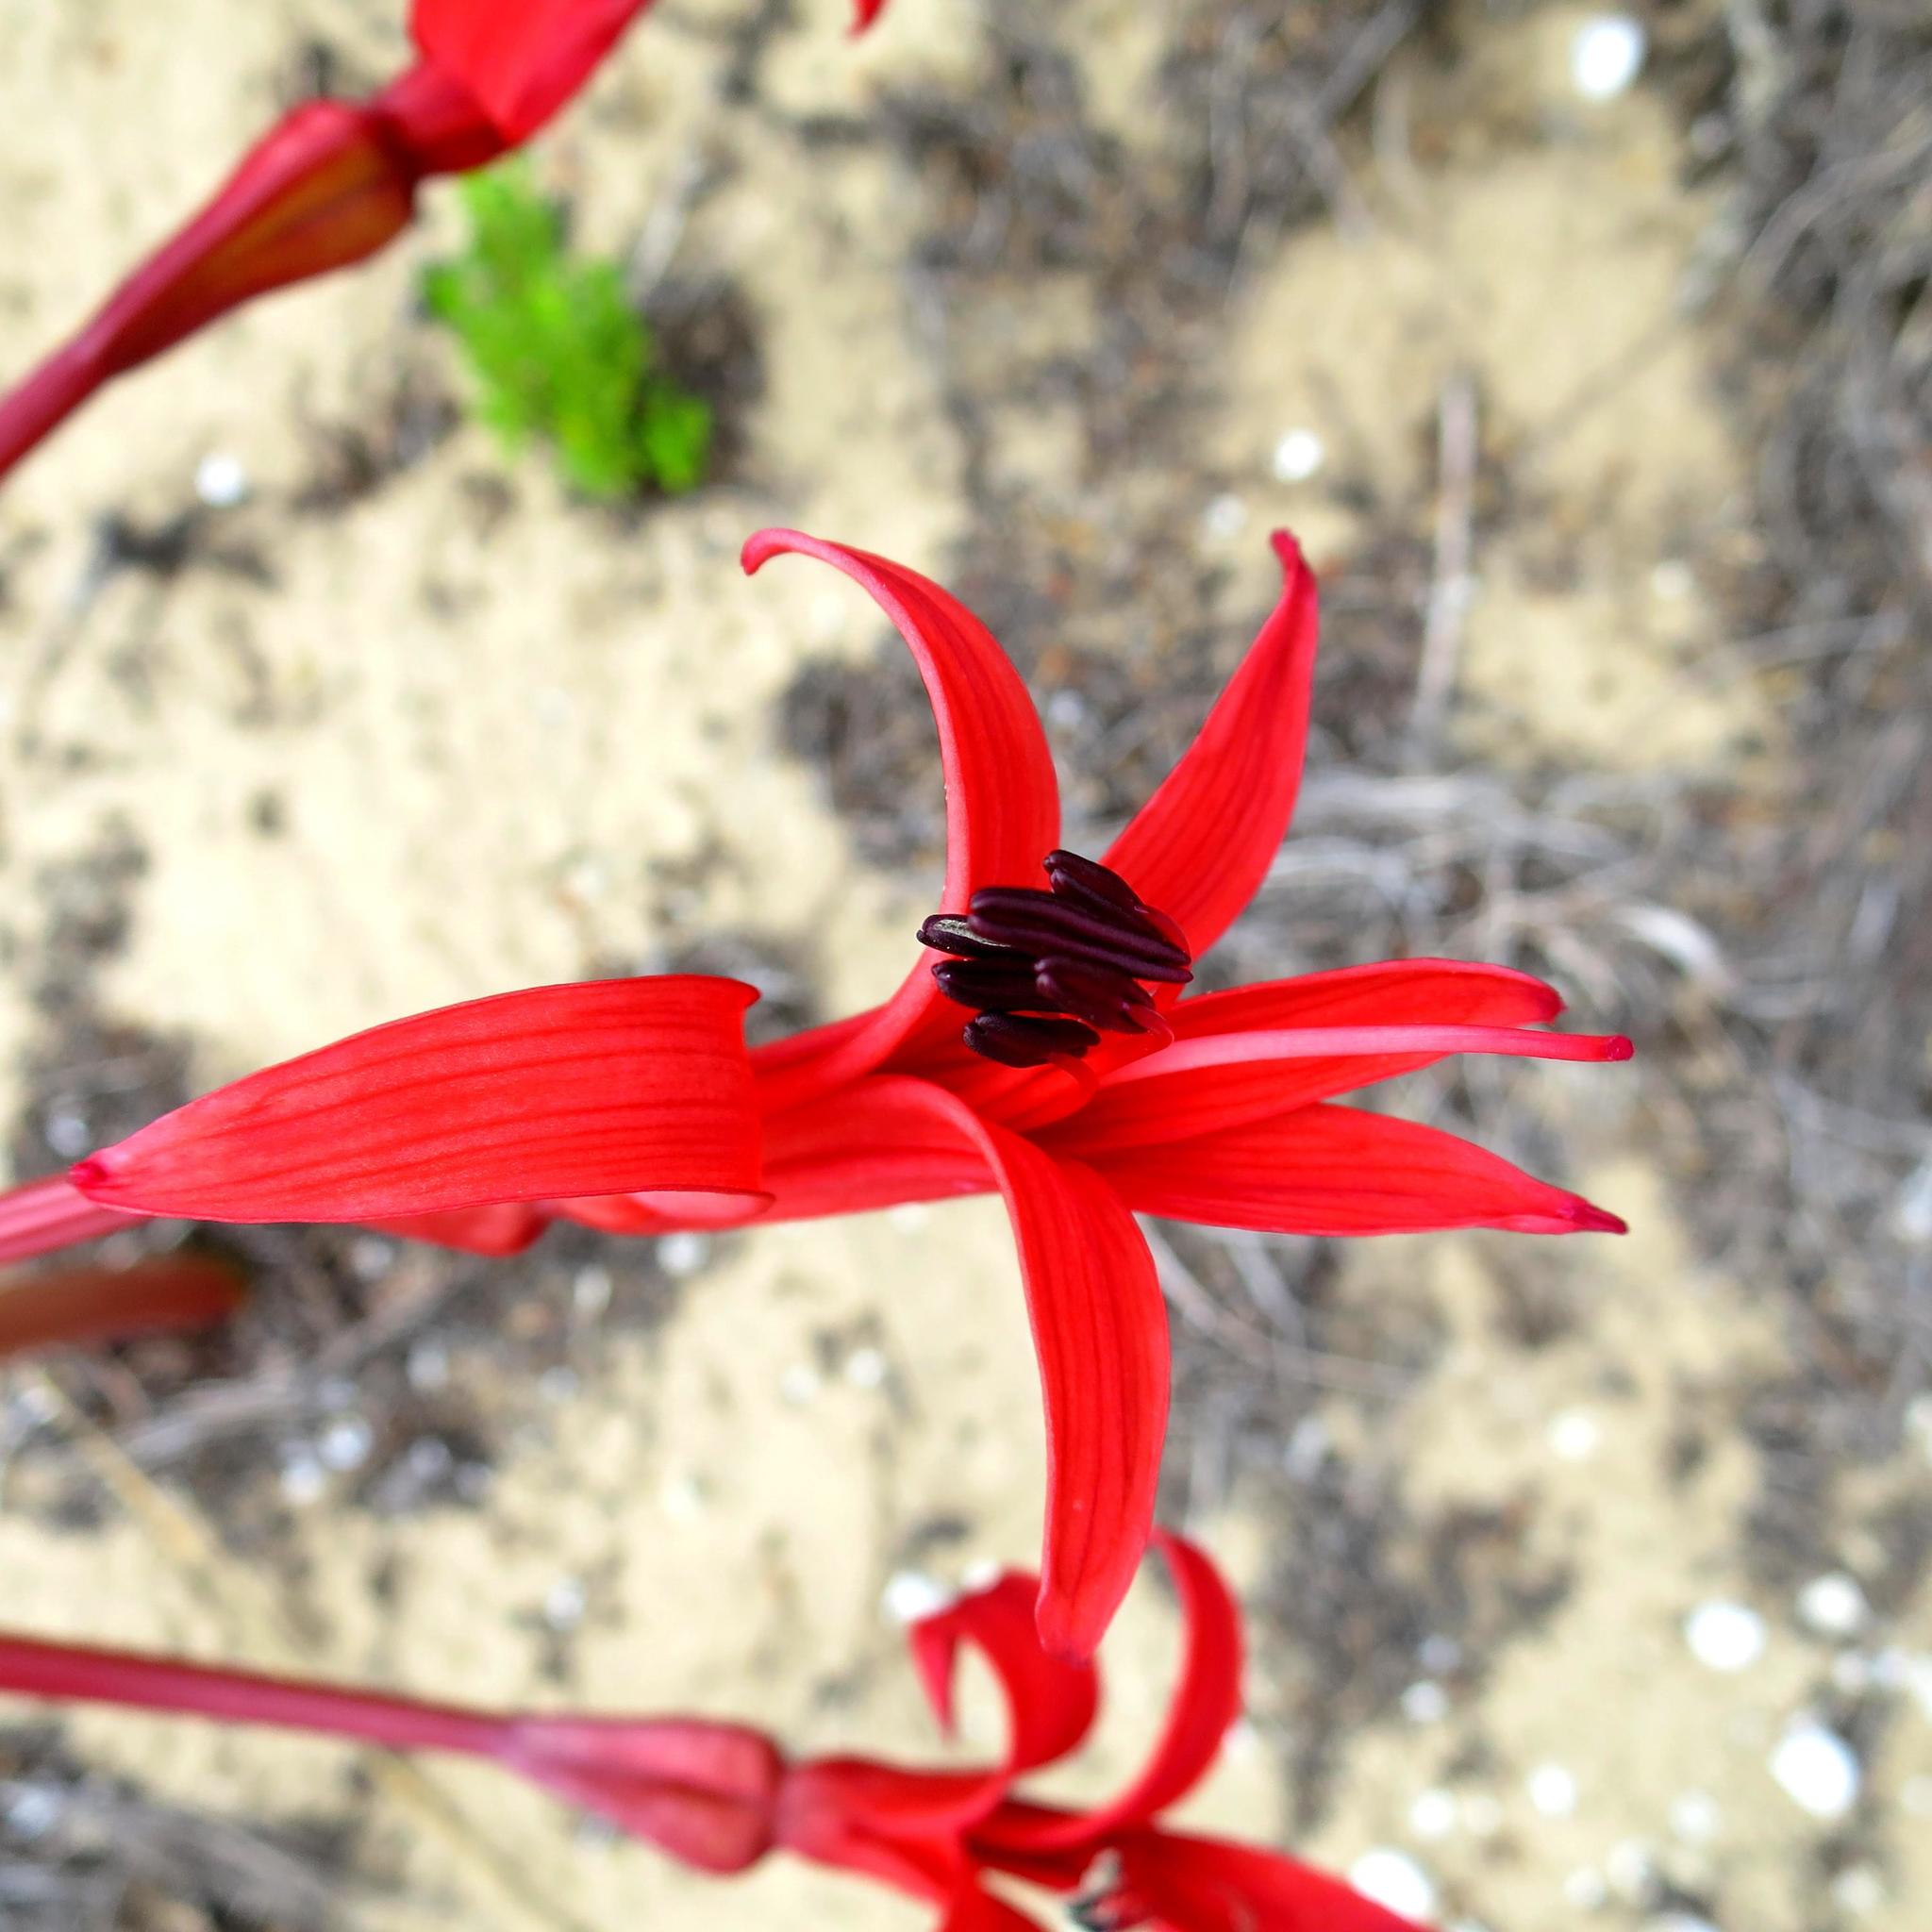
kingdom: Plantae
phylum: Tracheophyta
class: Liliopsida
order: Asparagales
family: Amaryllidaceae
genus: Brunsvigia
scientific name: Brunsvigia orientalis
